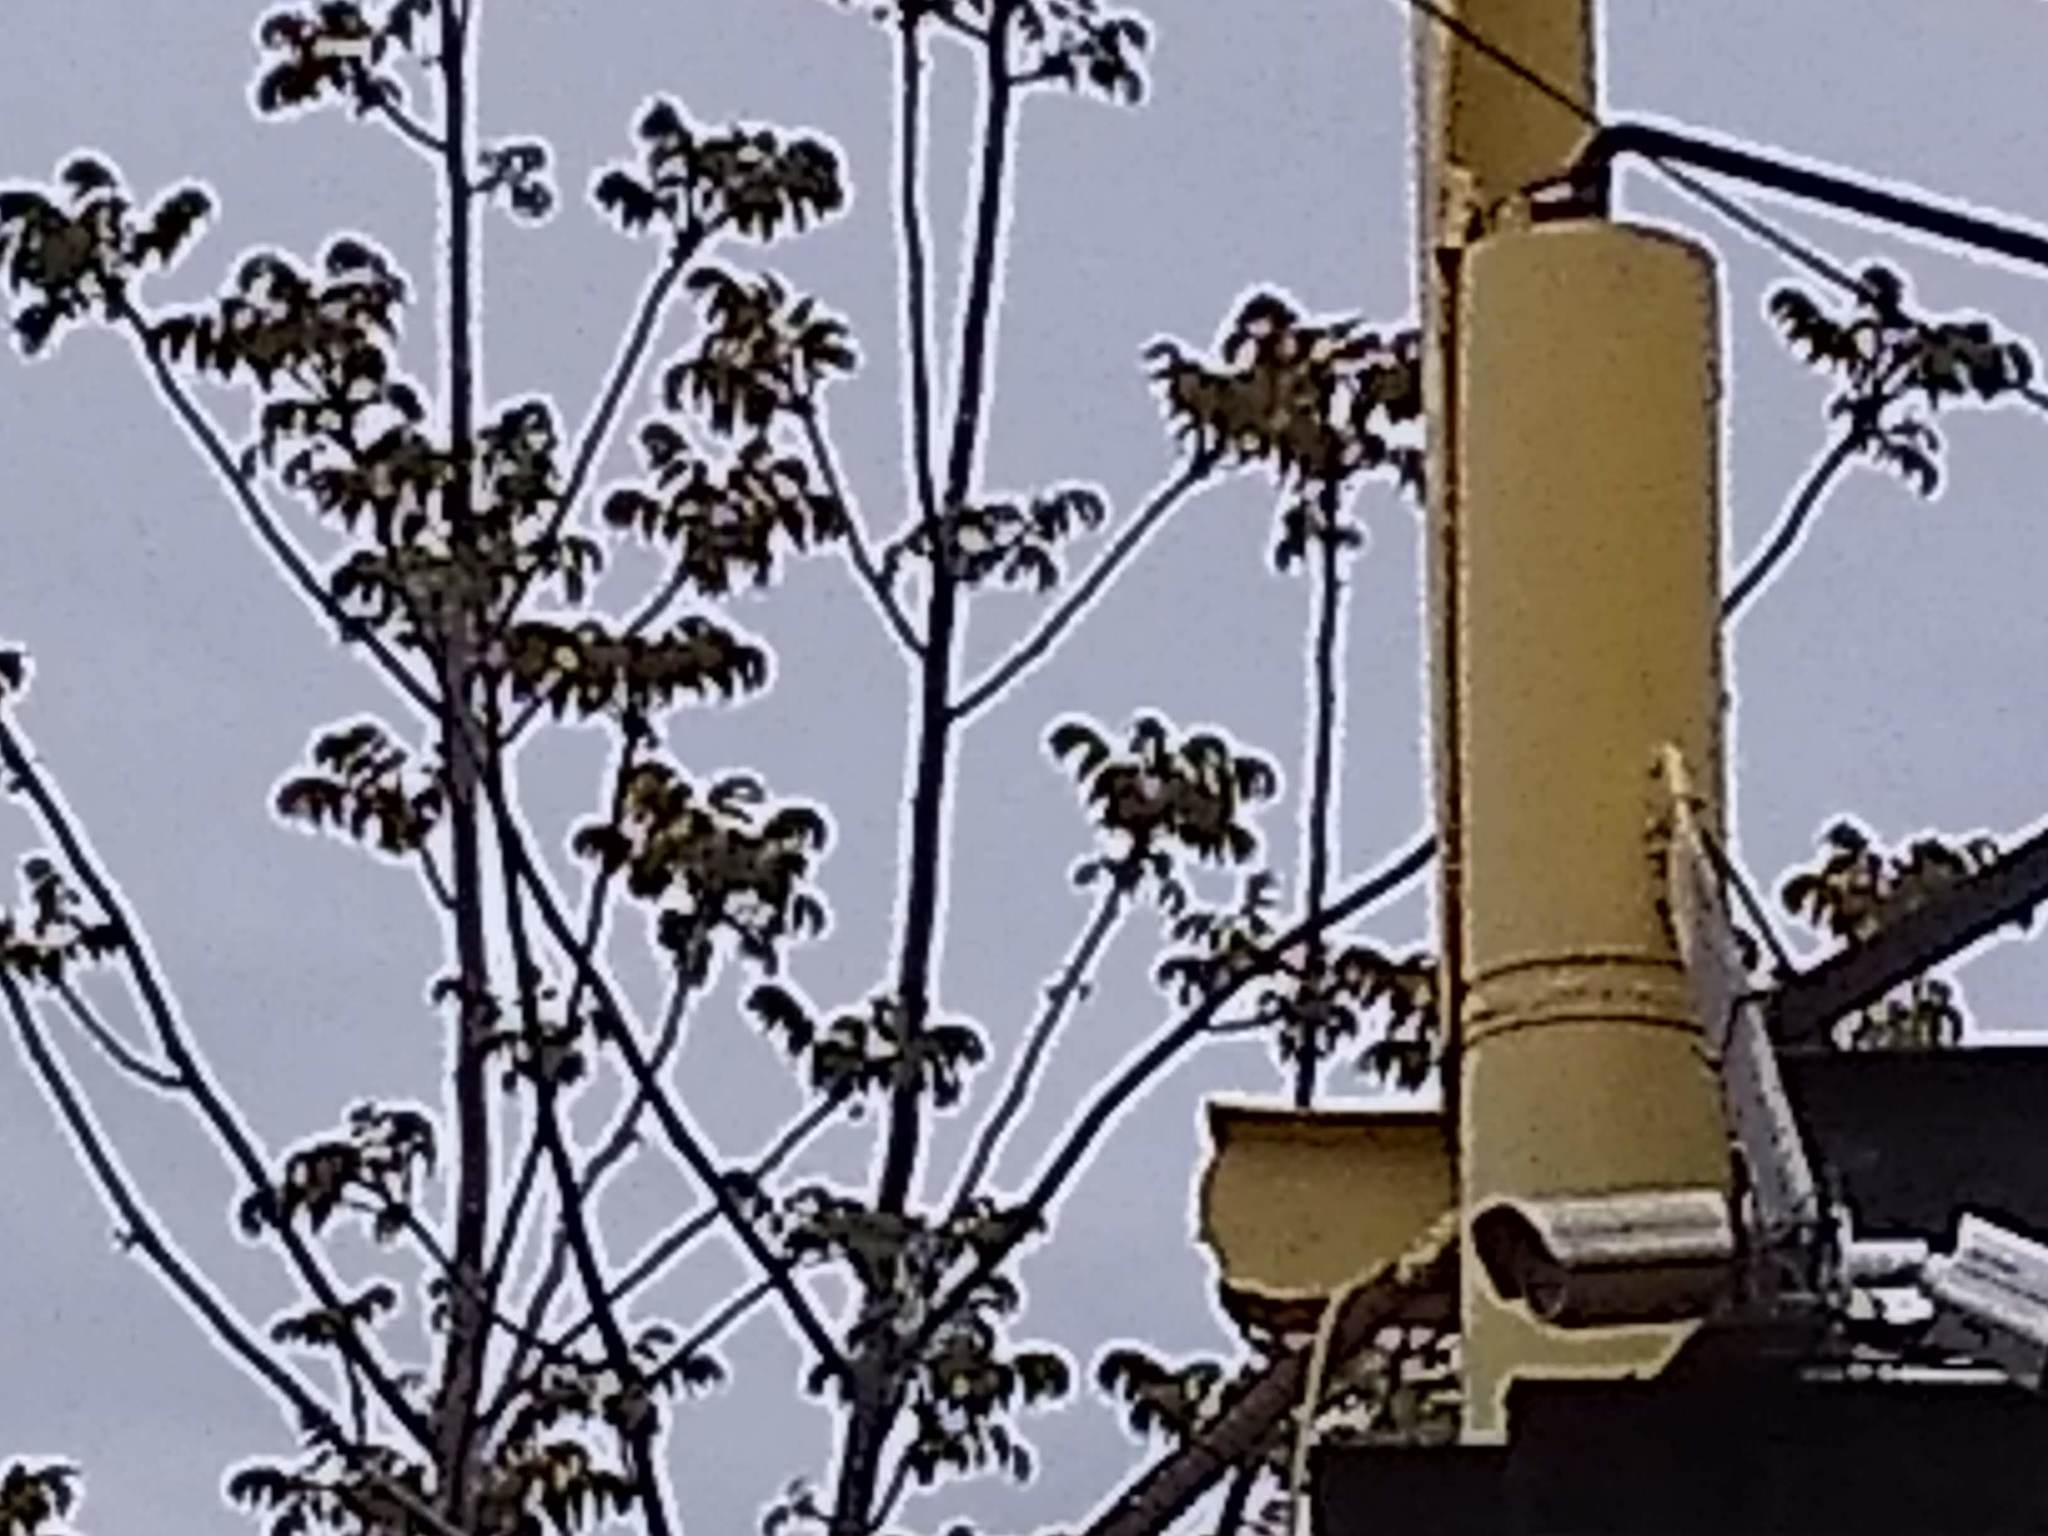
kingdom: Plantae
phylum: Tracheophyta
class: Magnoliopsida
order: Sapindales
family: Simaroubaceae
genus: Ailanthus
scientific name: Ailanthus altissima
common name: Tree-of-heaven
